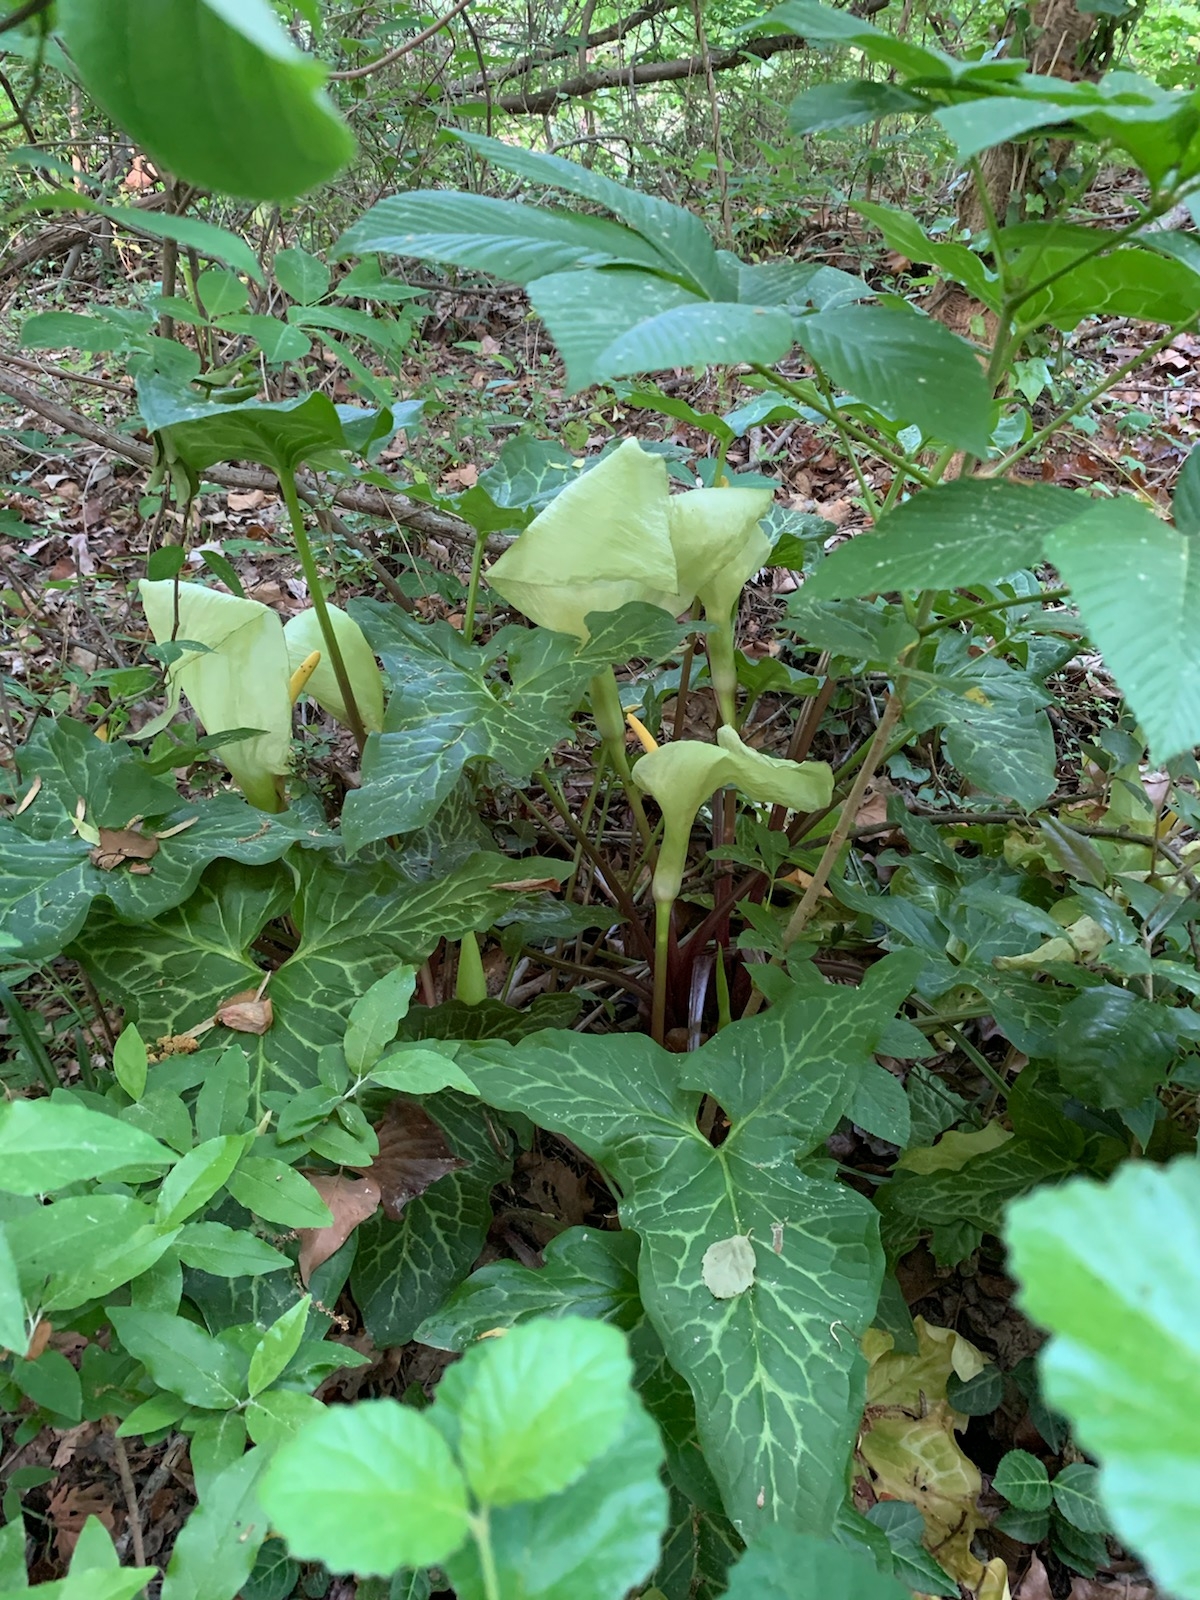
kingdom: Plantae
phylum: Tracheophyta
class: Liliopsida
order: Alismatales
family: Araceae
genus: Arum
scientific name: Arum italicum
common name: Italian lords-and-ladies
